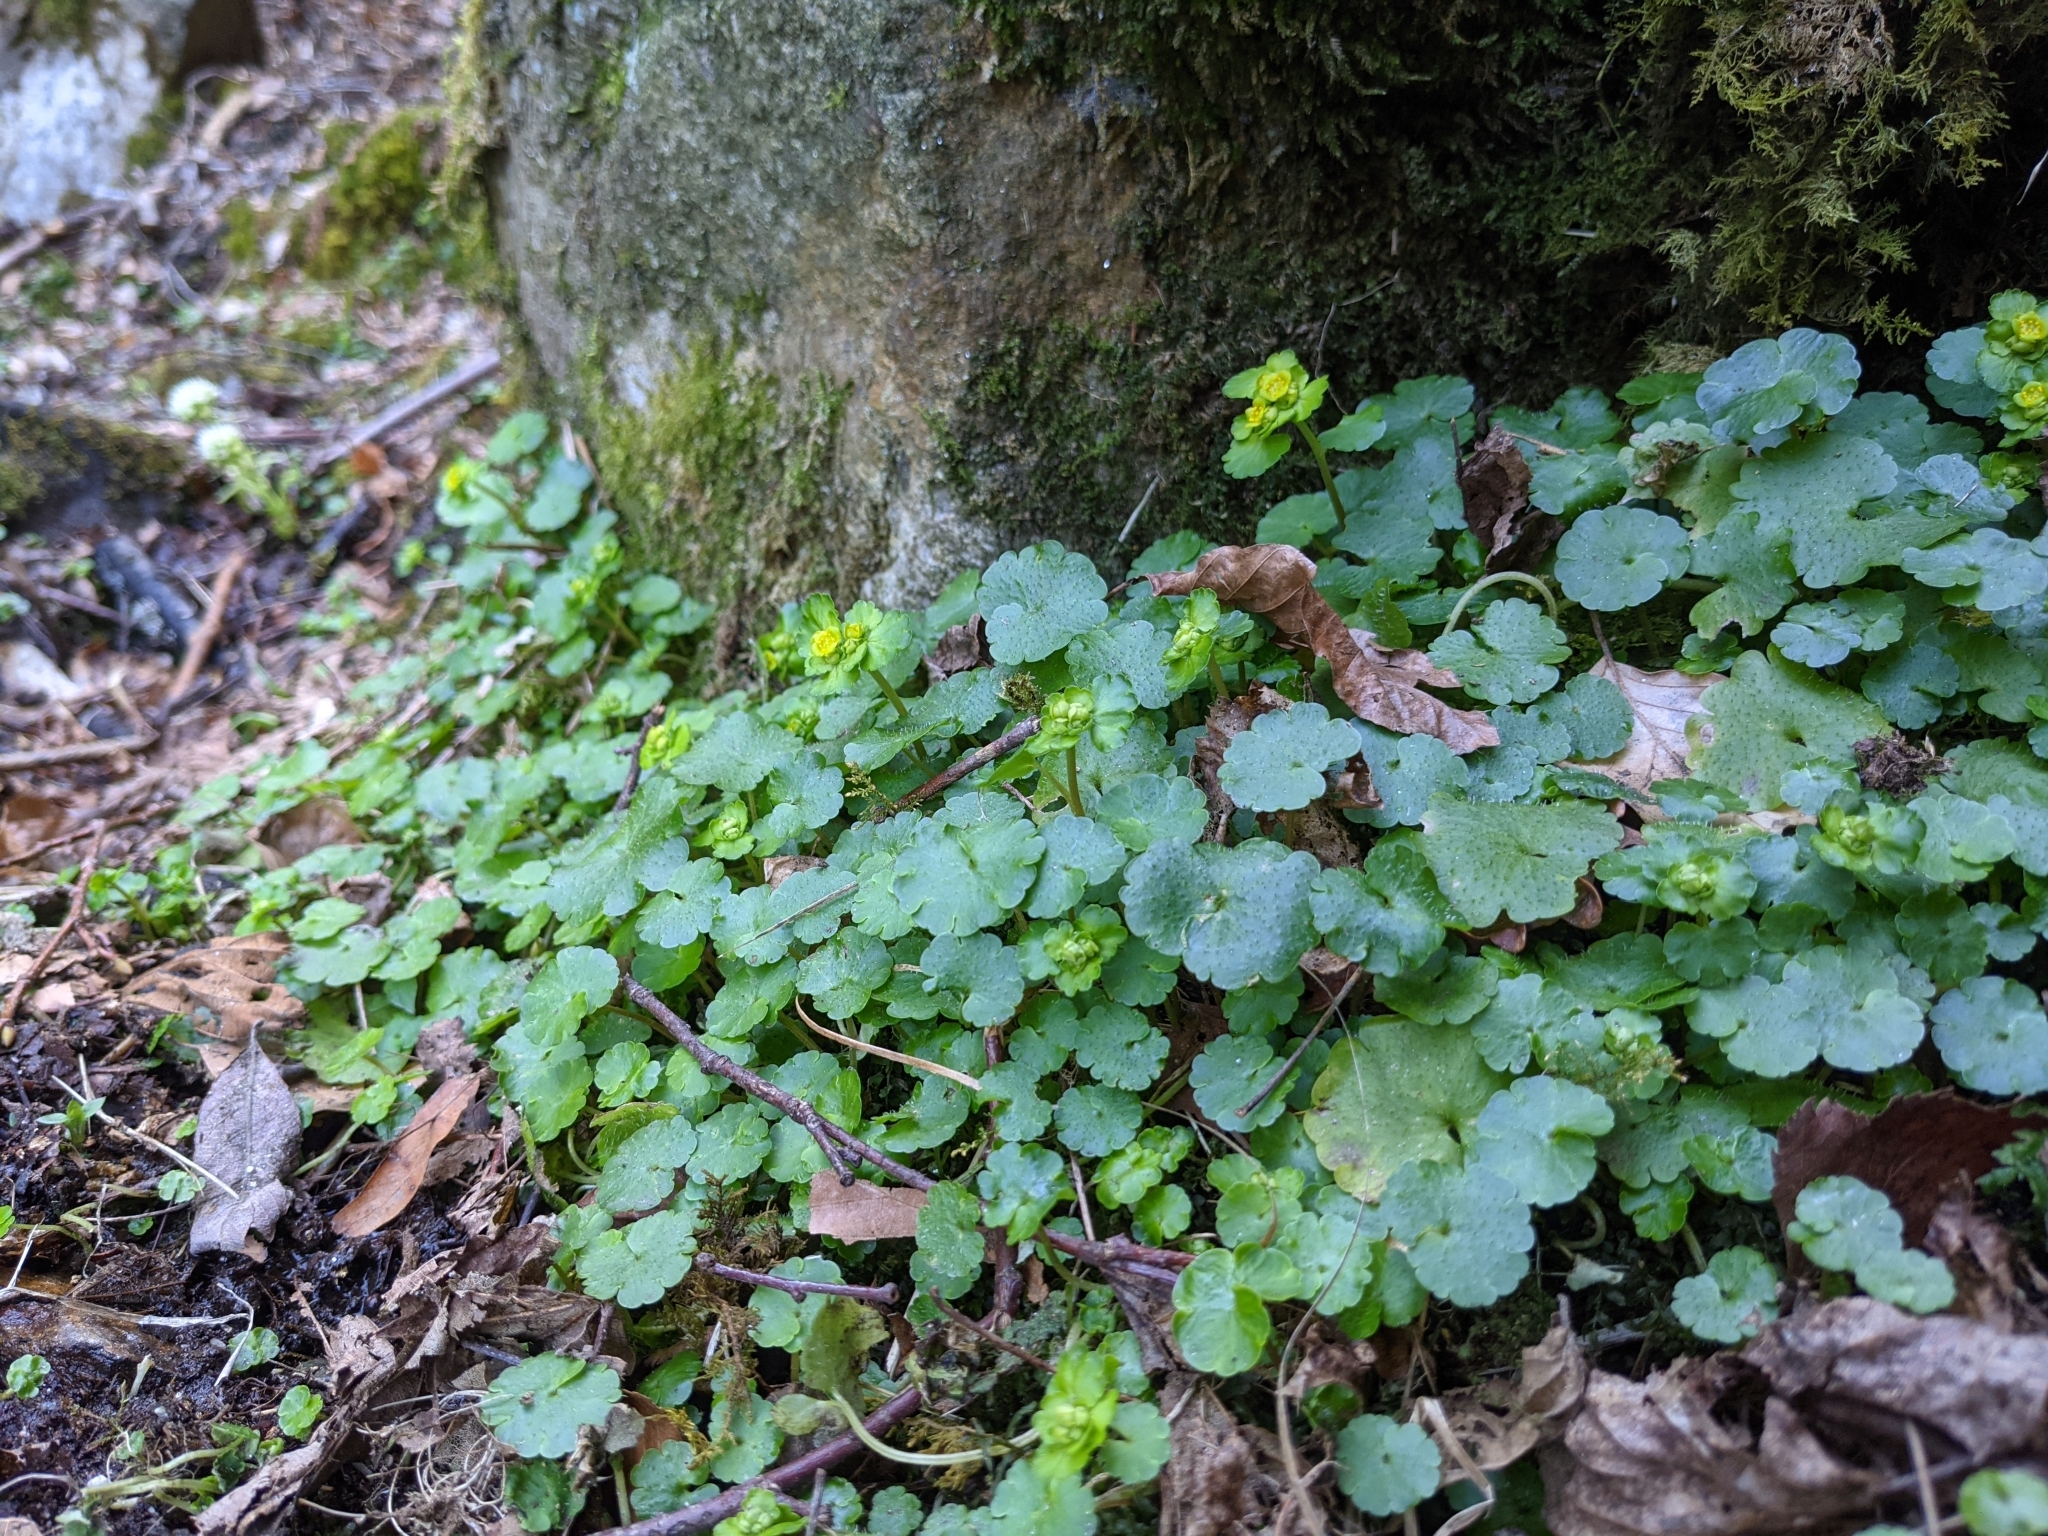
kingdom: Plantae
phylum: Tracheophyta
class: Magnoliopsida
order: Saxifragales
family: Saxifragaceae
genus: Chrysosplenium
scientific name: Chrysosplenium alternifolium
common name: Alternate-leaved golden-saxifrage
